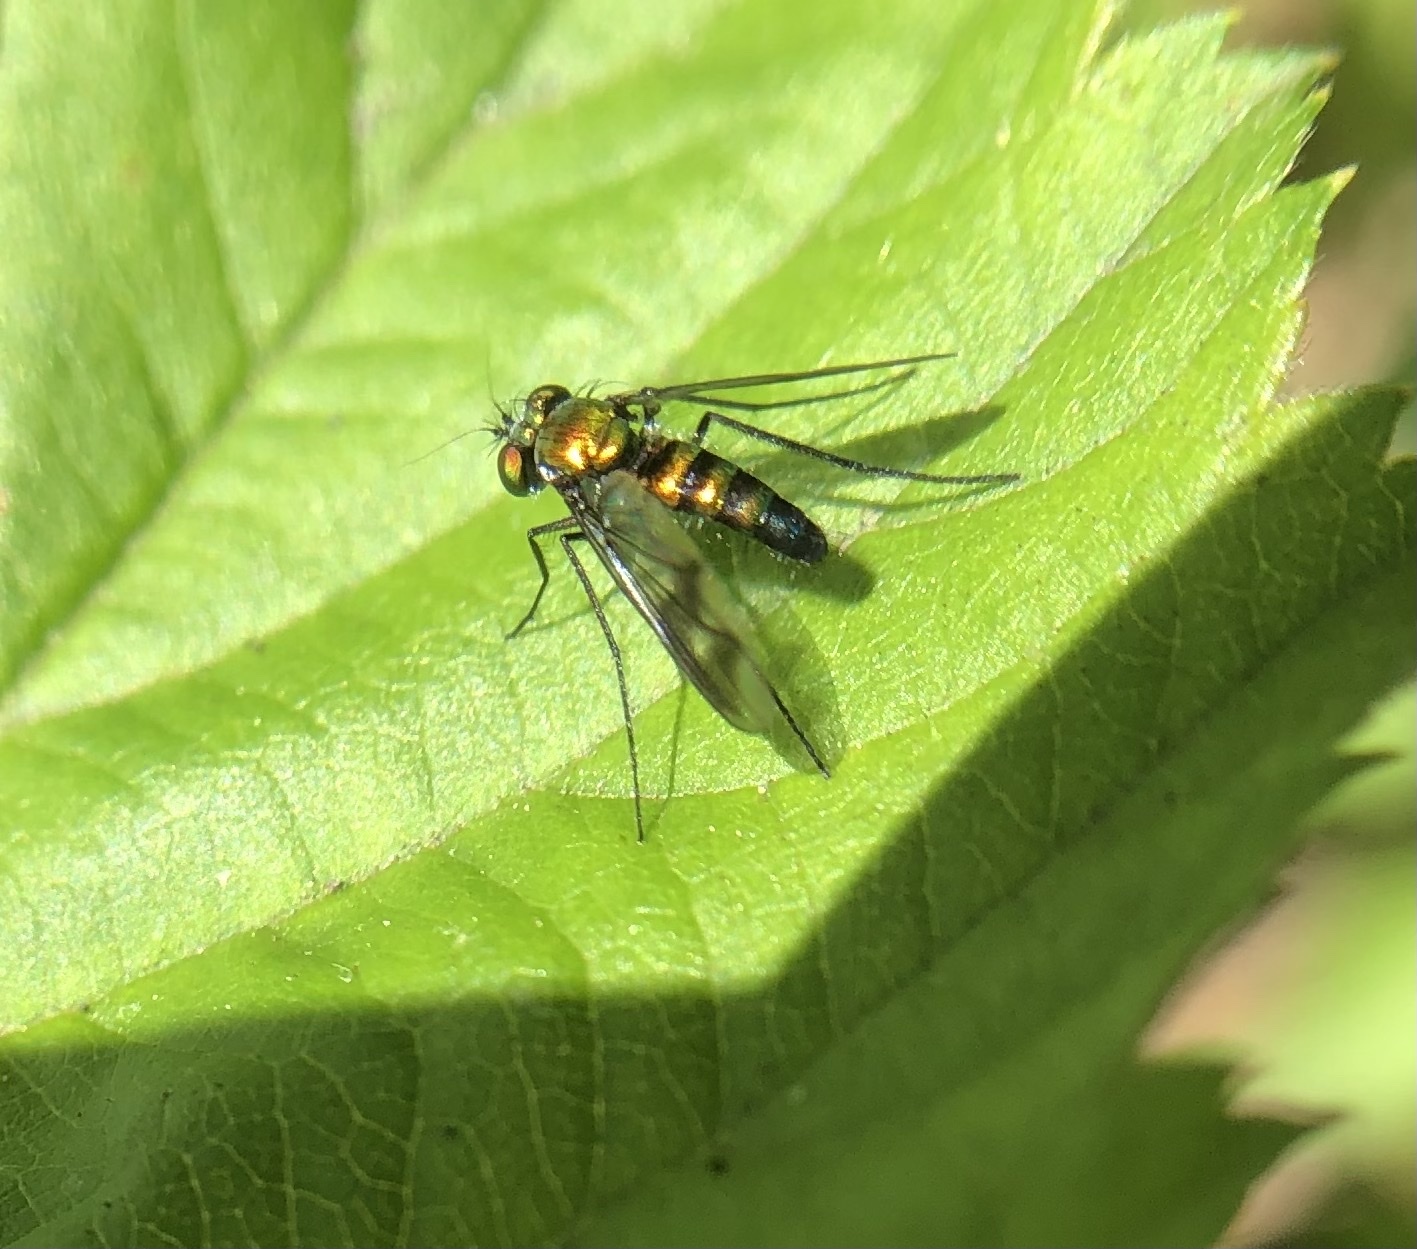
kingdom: Animalia
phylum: Arthropoda
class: Insecta
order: Diptera
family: Dolichopodidae
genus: Condylostylus
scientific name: Condylostylus patibulatus
